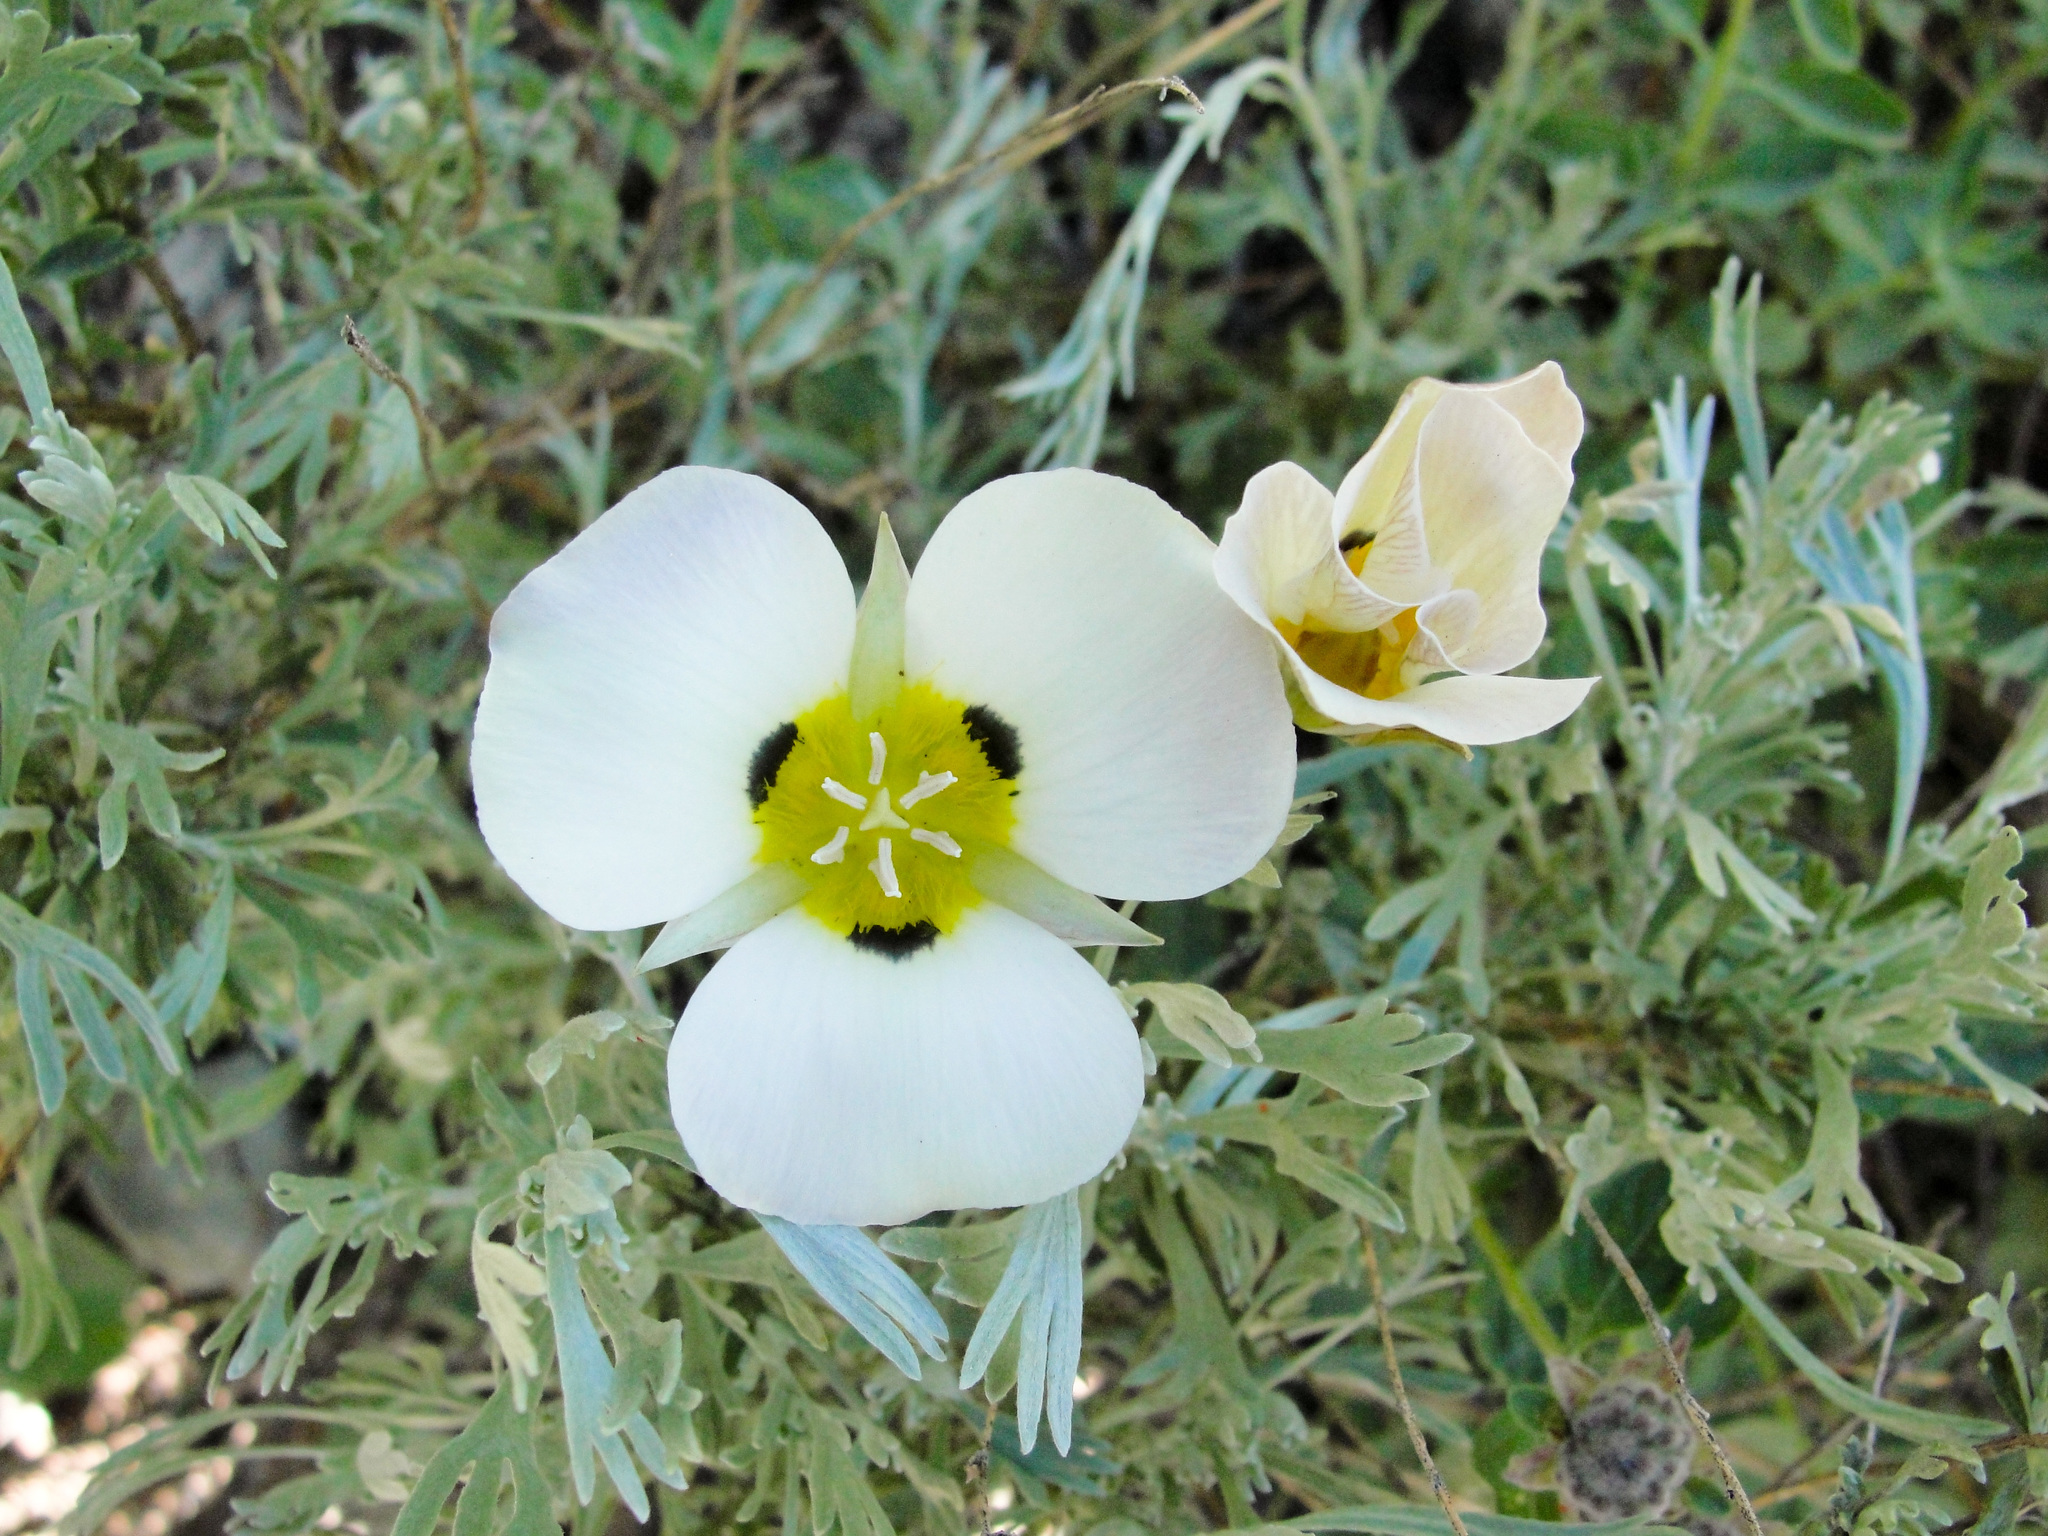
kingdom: Plantae
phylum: Tracheophyta
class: Liliopsida
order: Liliales
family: Liliaceae
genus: Calochortus
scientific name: Calochortus leichtlinii
